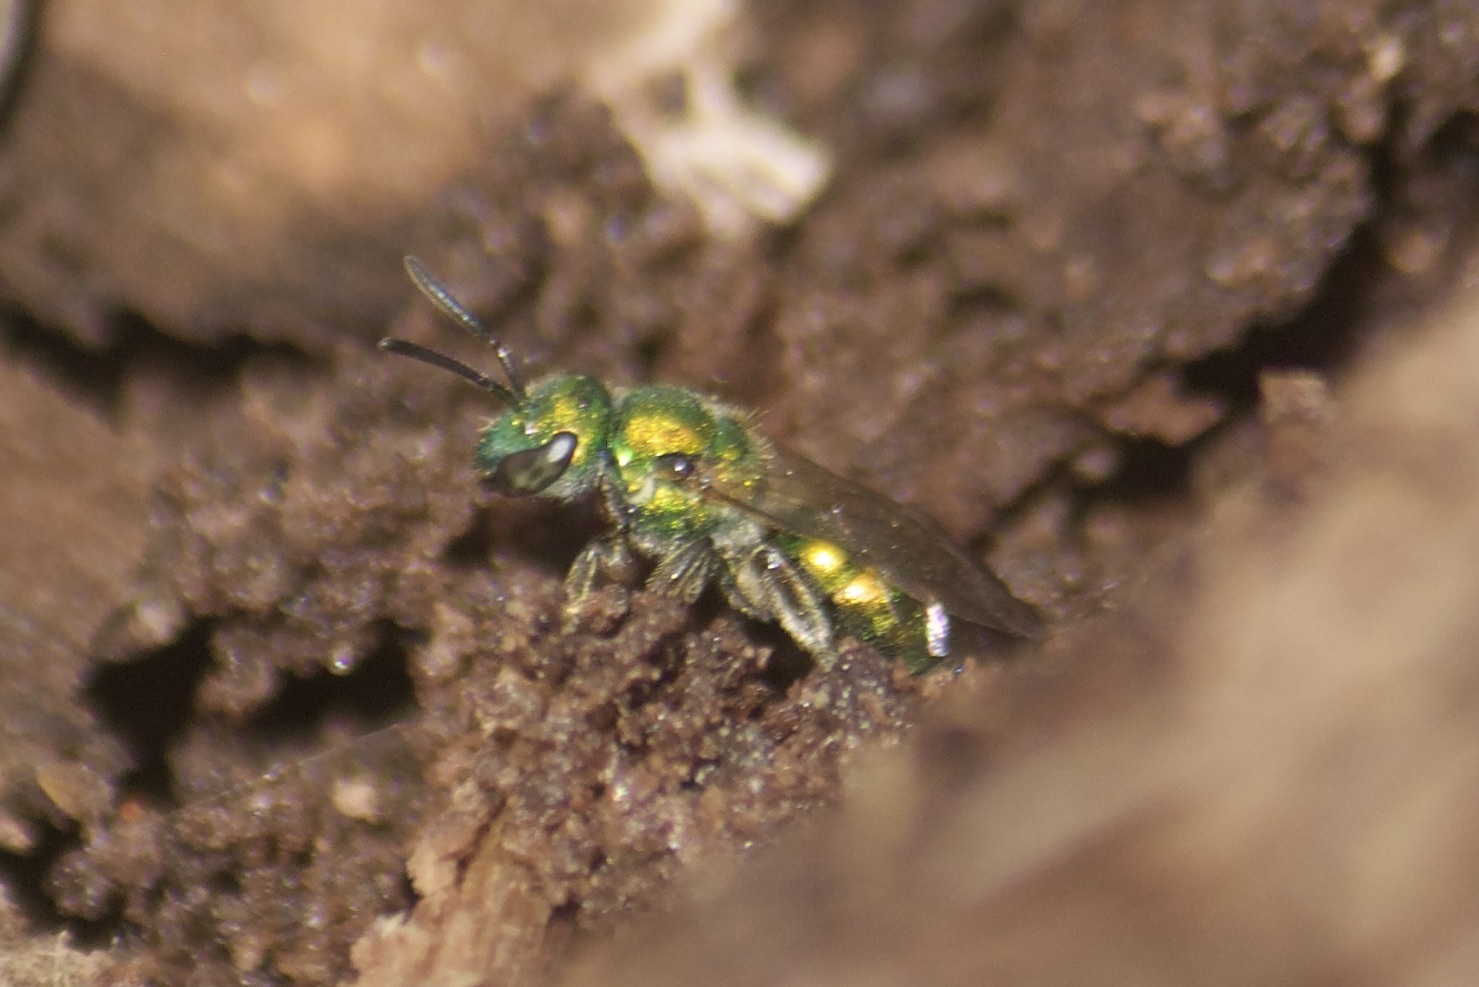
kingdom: Animalia
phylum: Arthropoda
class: Insecta
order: Hymenoptera
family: Halictidae
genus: Augochlora
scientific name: Augochlora pura
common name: Pure green sweat bee
